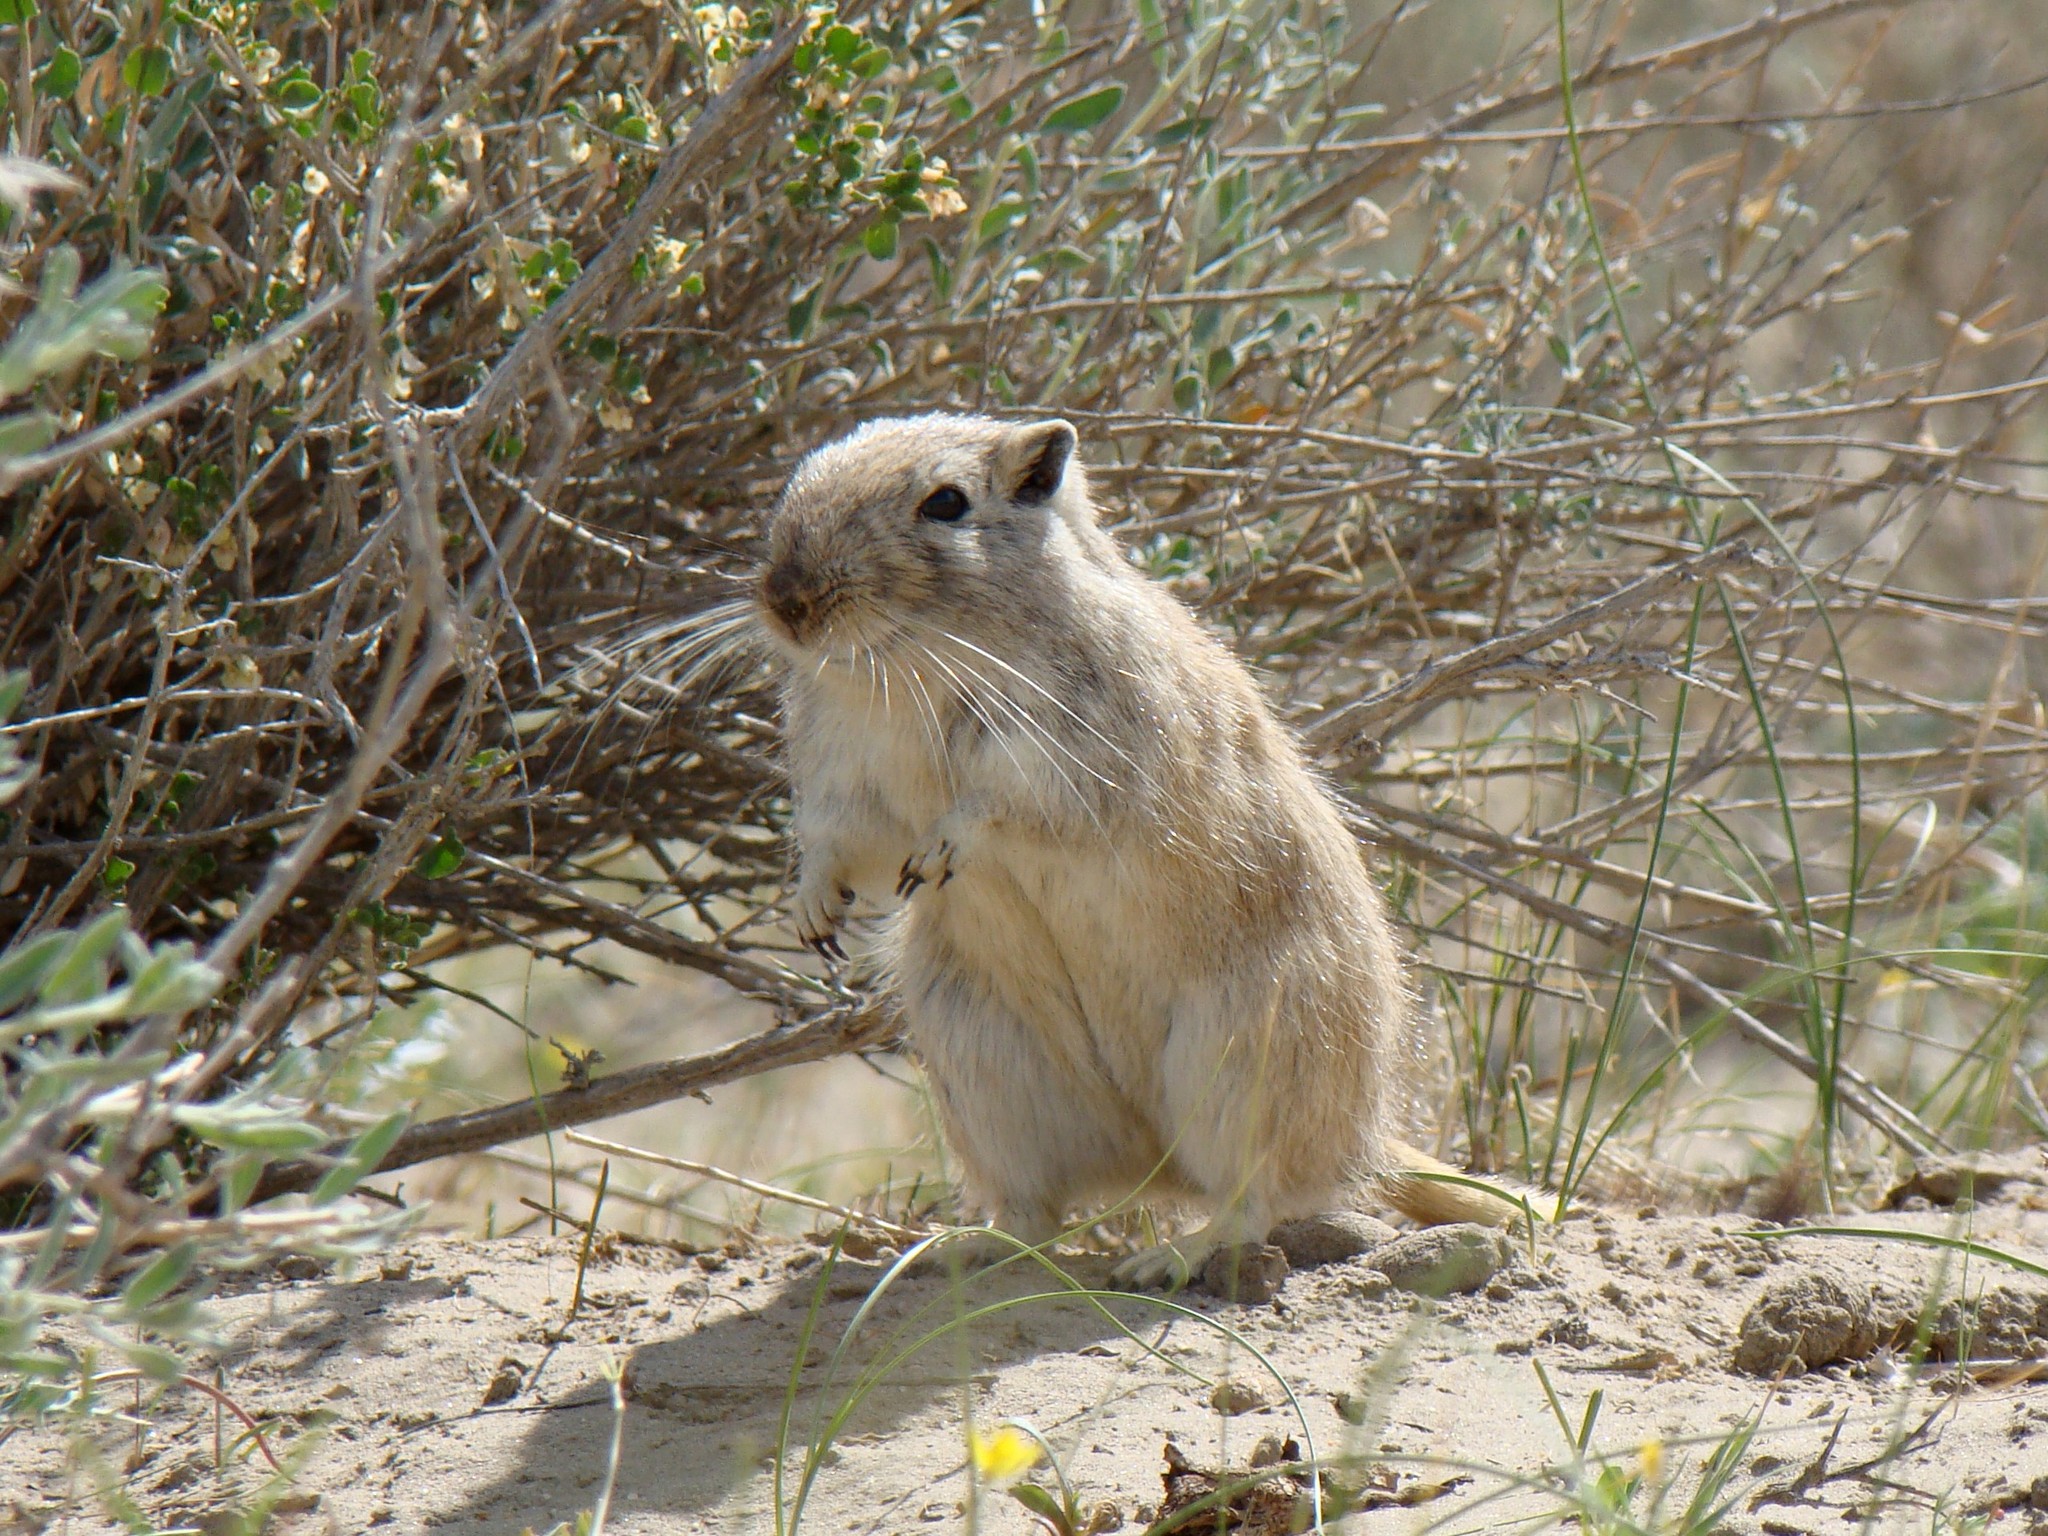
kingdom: Animalia
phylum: Chordata
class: Mammalia
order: Rodentia
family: Muridae
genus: Rhombomys
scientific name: Rhombomys opimus
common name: Great gerbil
